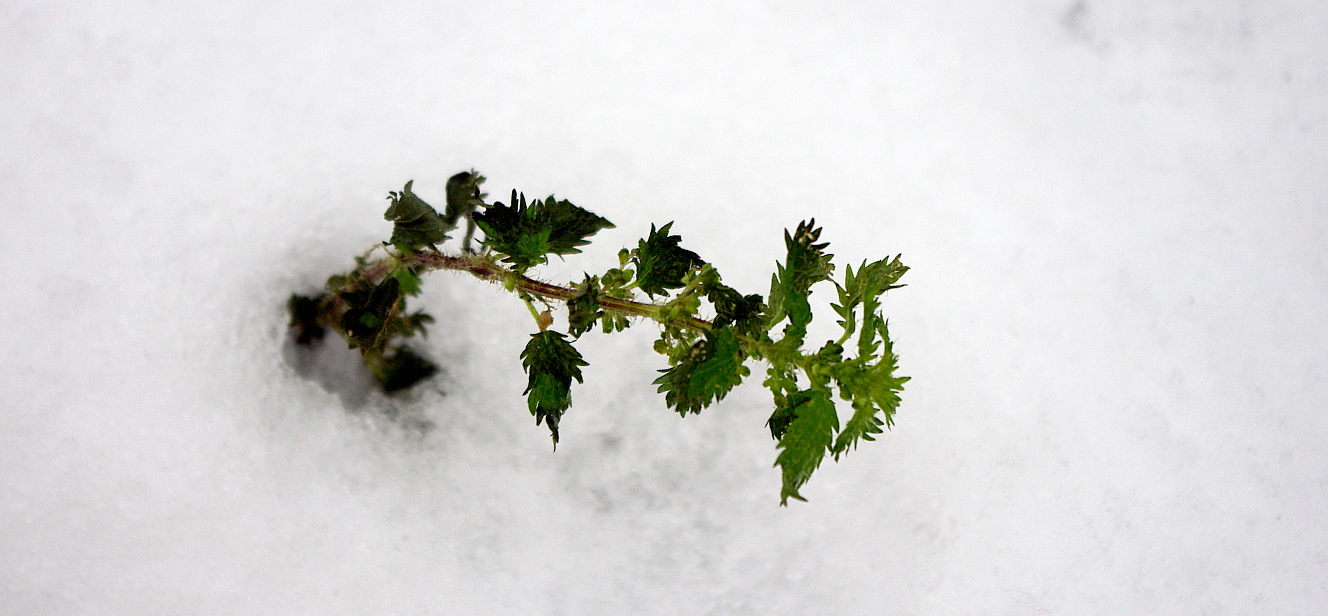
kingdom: Plantae
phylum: Tracheophyta
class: Magnoliopsida
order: Rosales
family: Urticaceae
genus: Urtica
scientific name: Urtica urens
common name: Dwarf nettle
